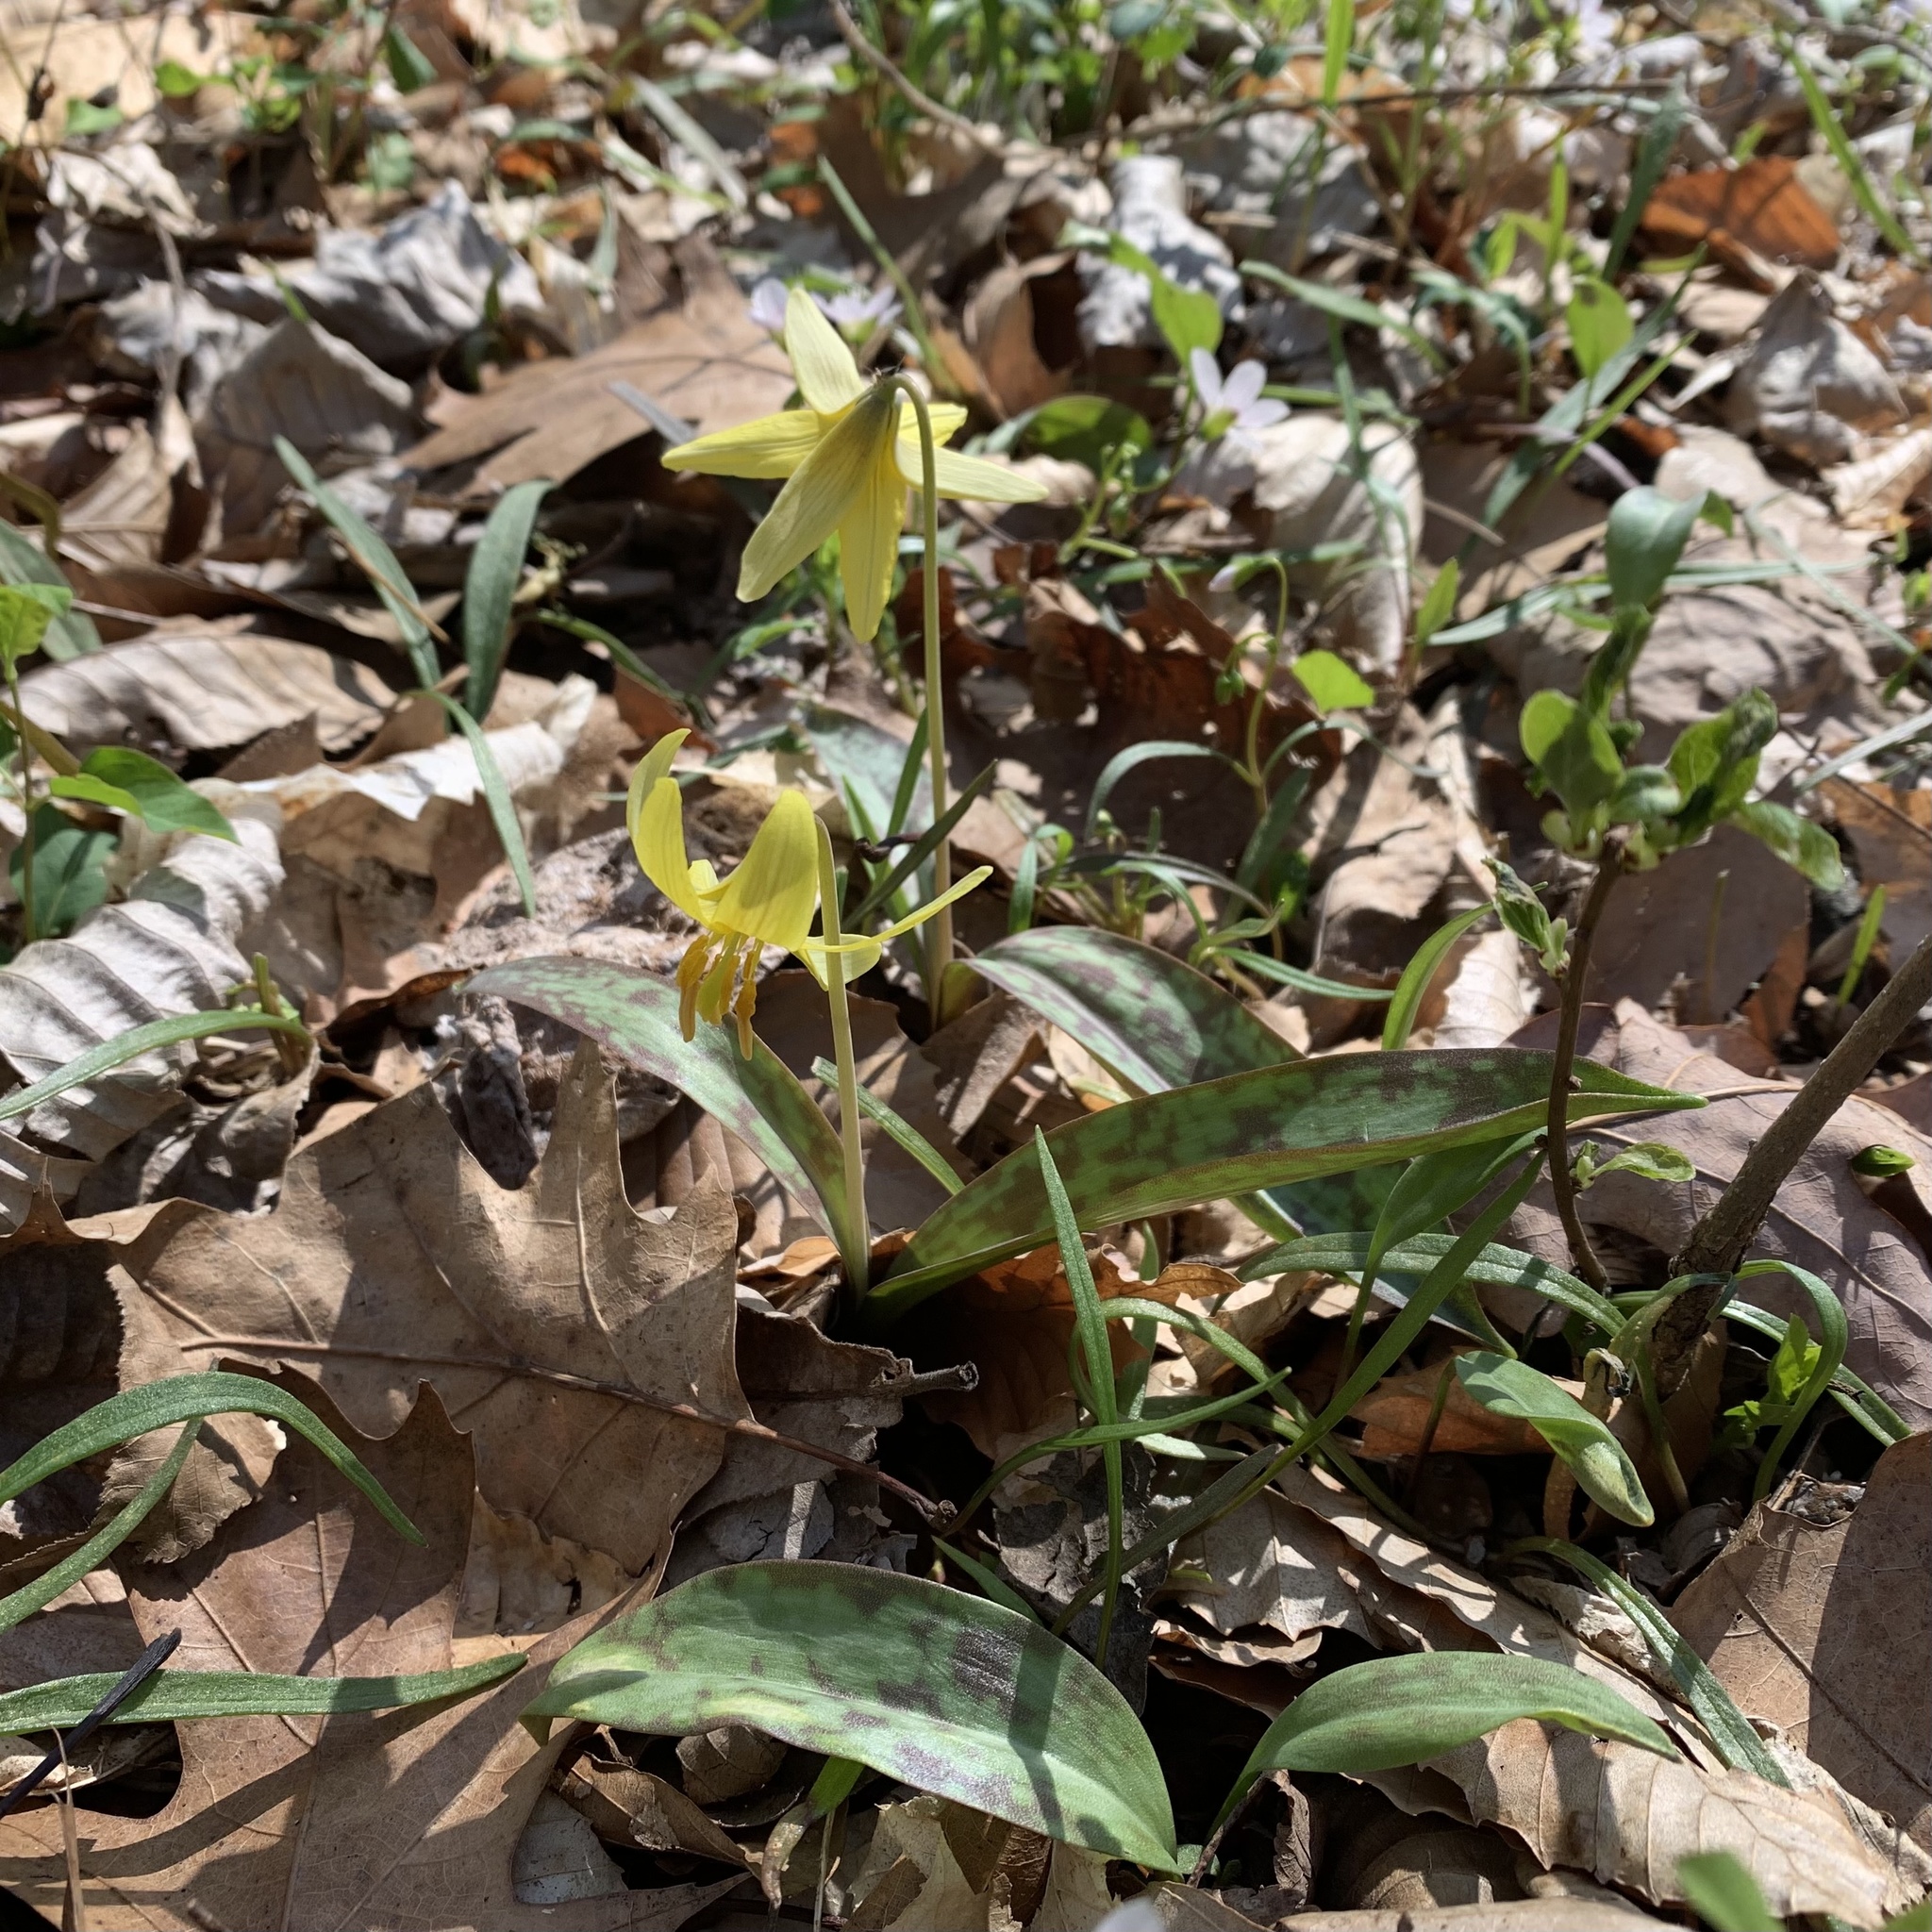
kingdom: Plantae
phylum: Tracheophyta
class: Liliopsida
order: Liliales
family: Liliaceae
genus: Erythronium
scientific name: Erythronium americanum
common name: Yellow adder's-tongue
